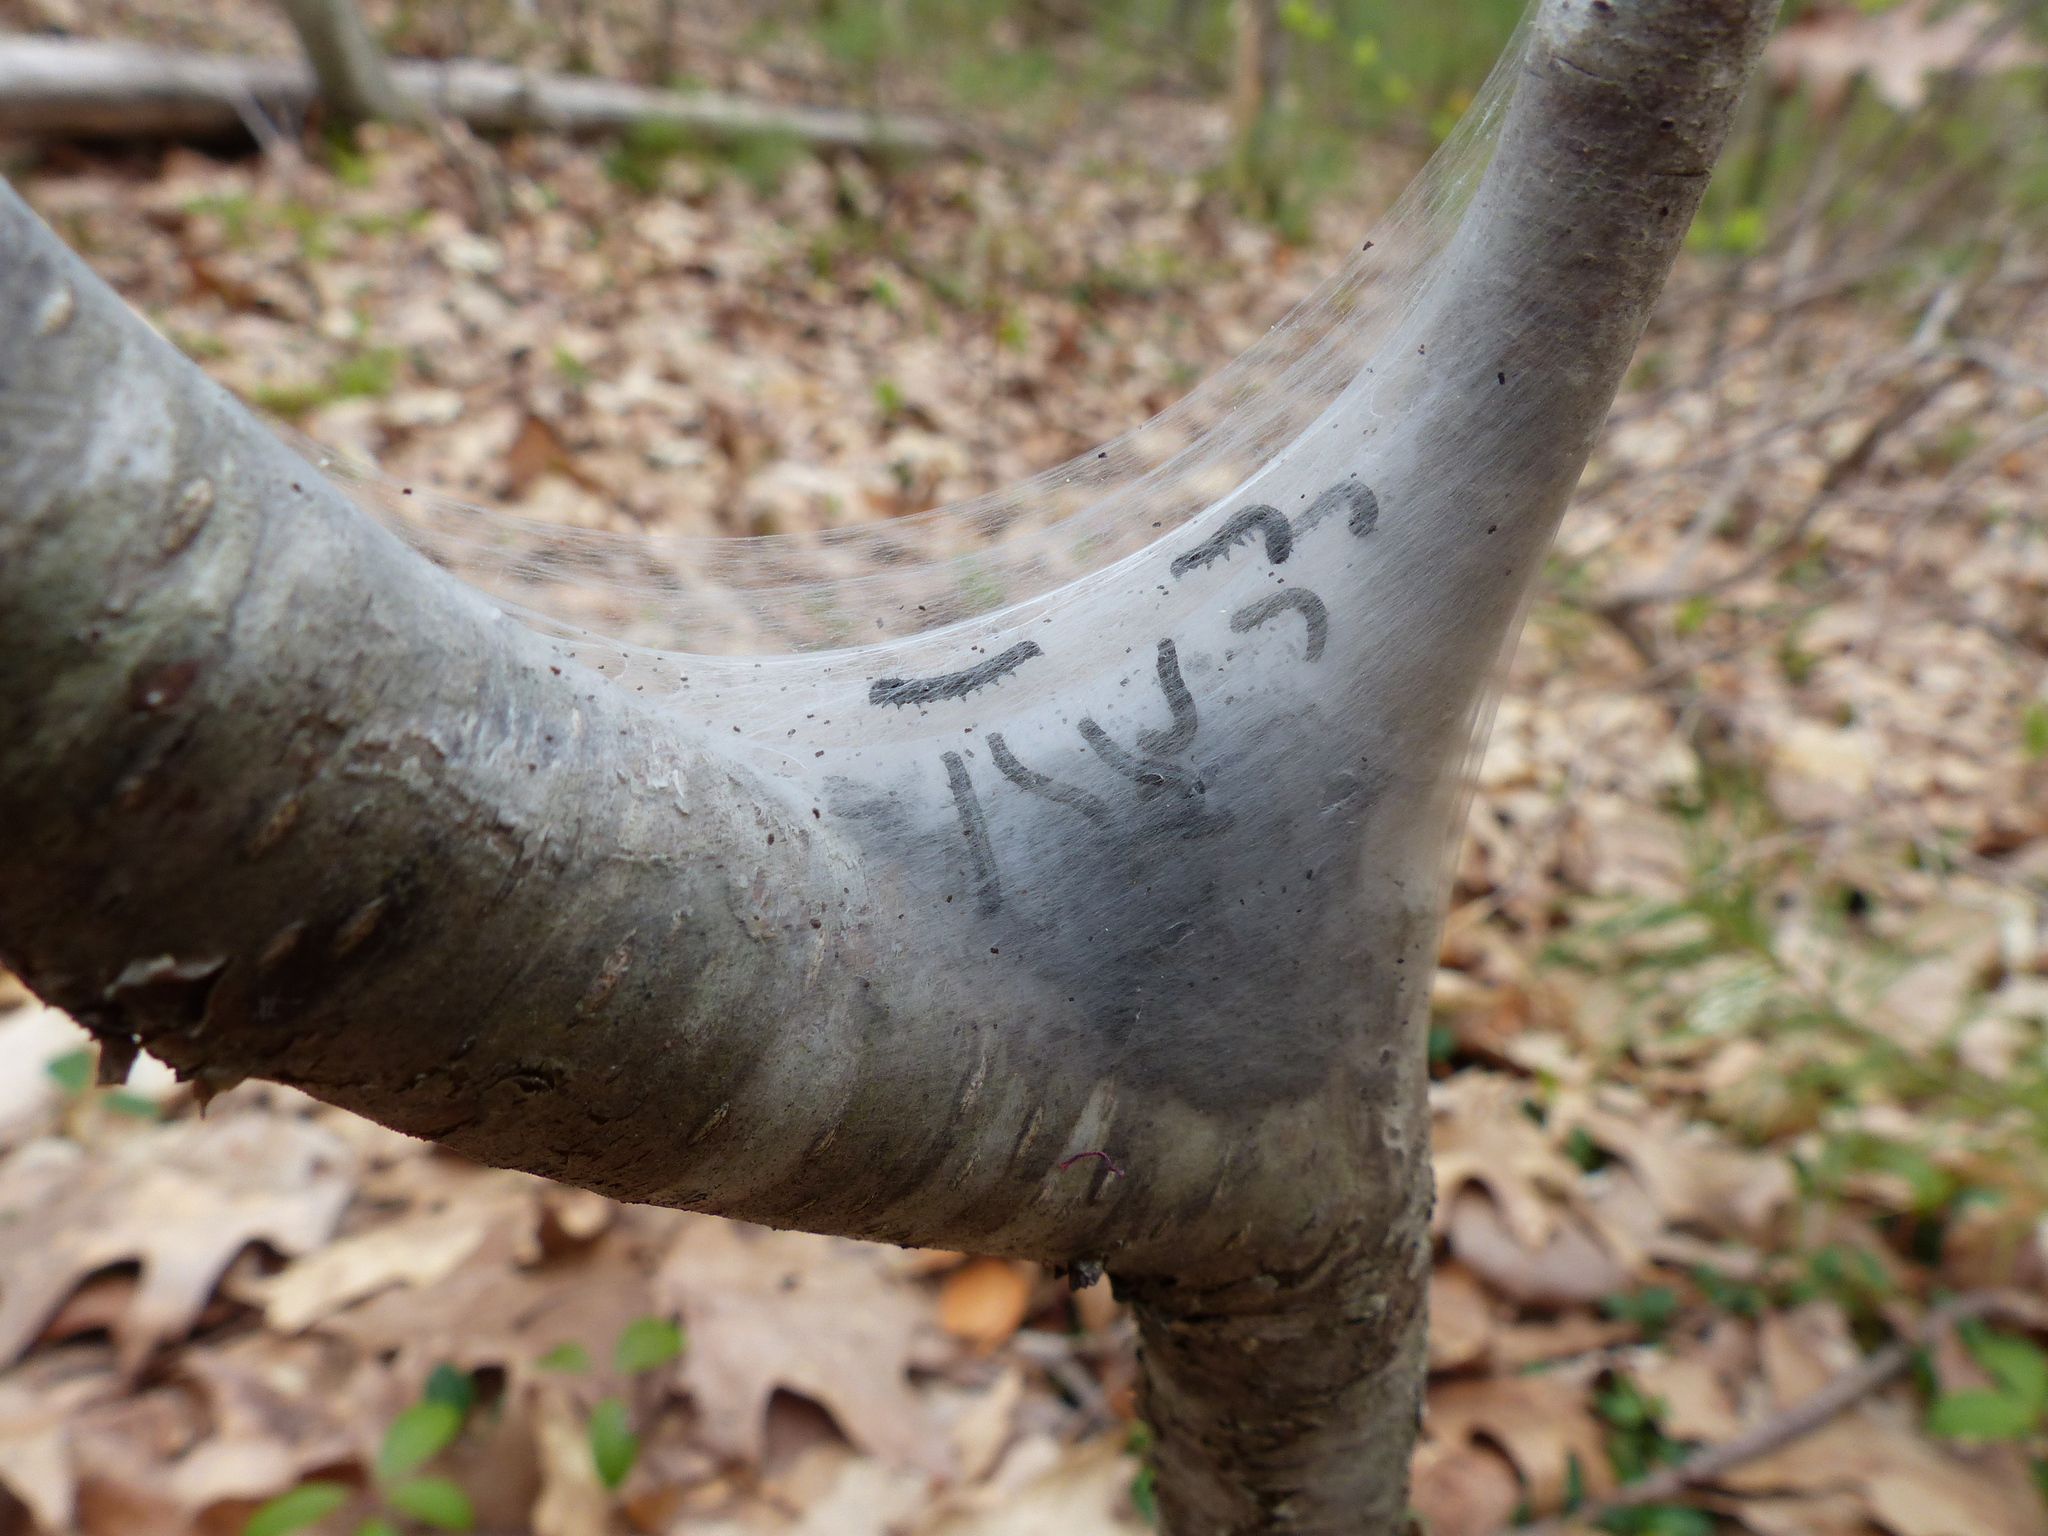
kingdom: Animalia
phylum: Arthropoda
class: Insecta
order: Lepidoptera
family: Lasiocampidae
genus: Malacosoma
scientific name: Malacosoma americana
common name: Eastern tent caterpillar moth
